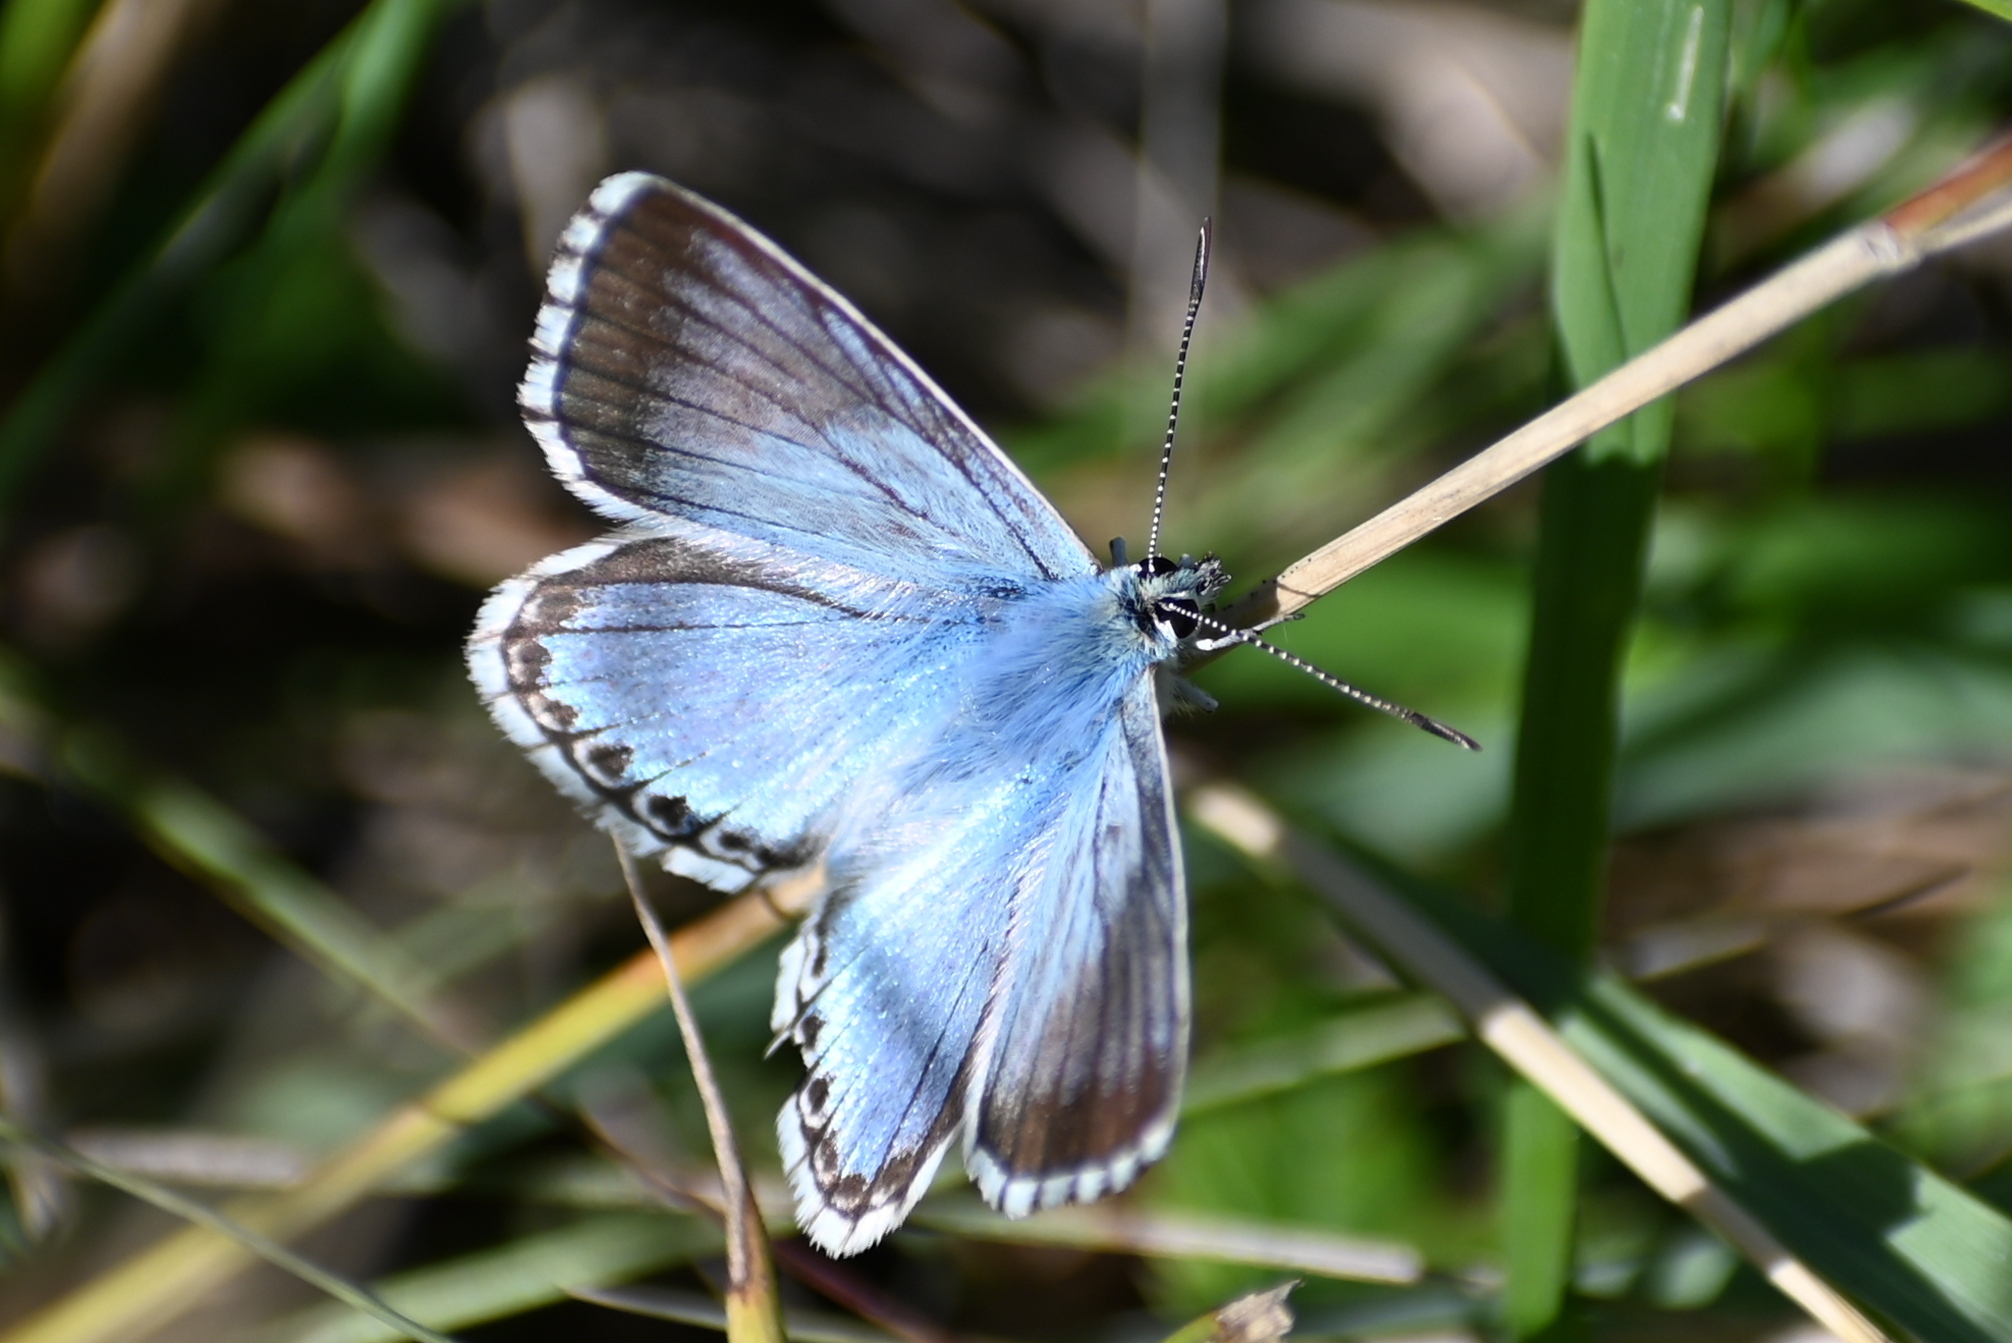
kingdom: Animalia
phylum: Arthropoda
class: Insecta
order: Lepidoptera
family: Lycaenidae
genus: Lysandra
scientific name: Lysandra coridon
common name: Chalkhill blue
